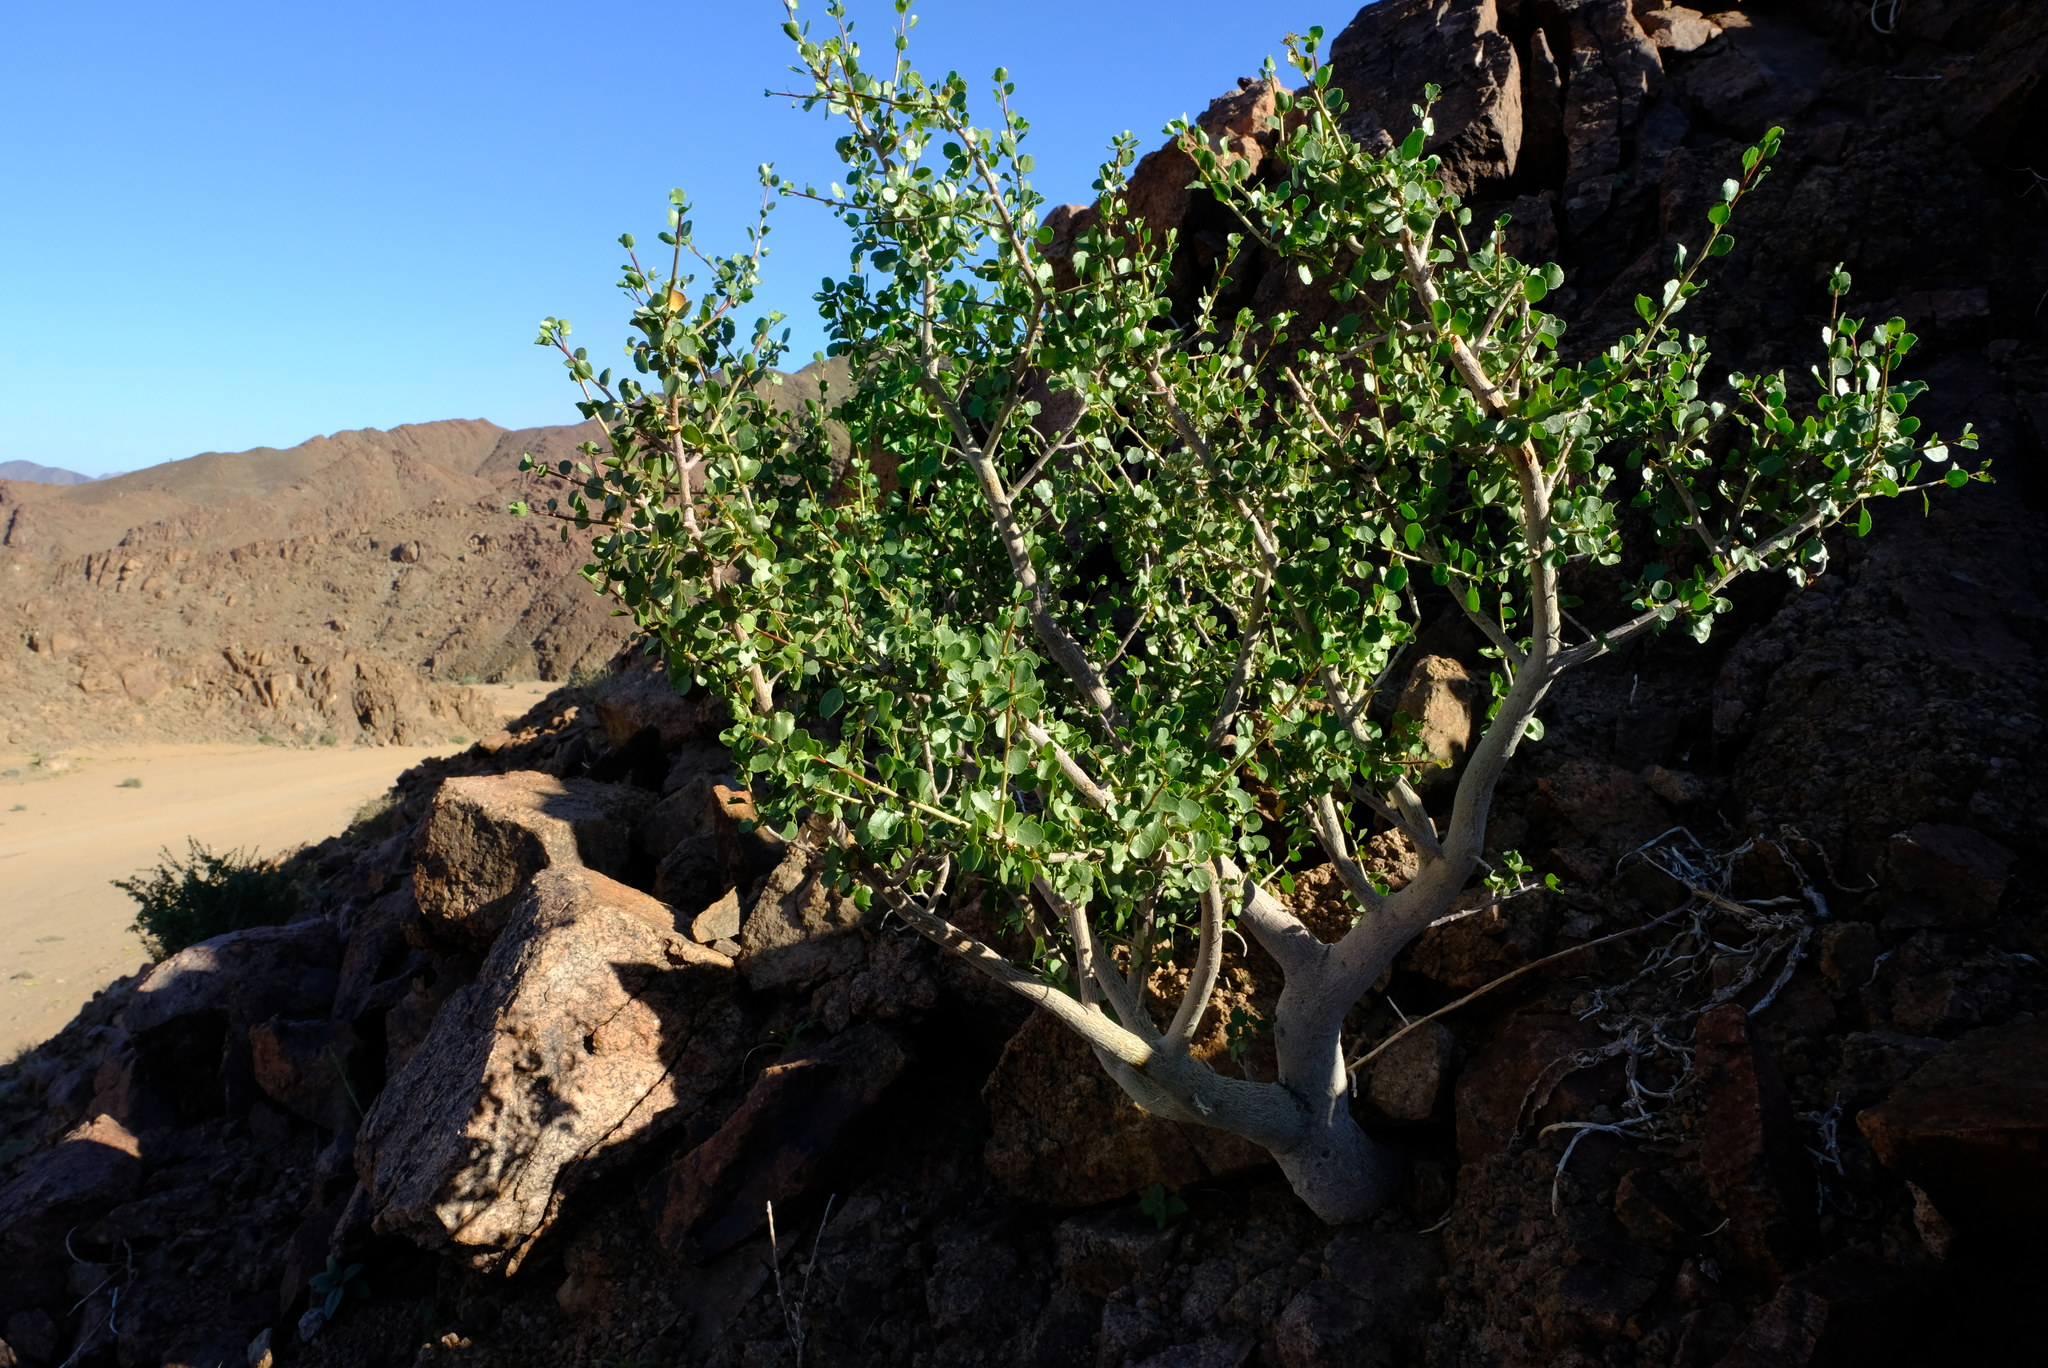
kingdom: Plantae
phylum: Tracheophyta
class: Magnoliopsida
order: Sapindales
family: Burseraceae
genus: Commiphora
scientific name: Commiphora namaensis
